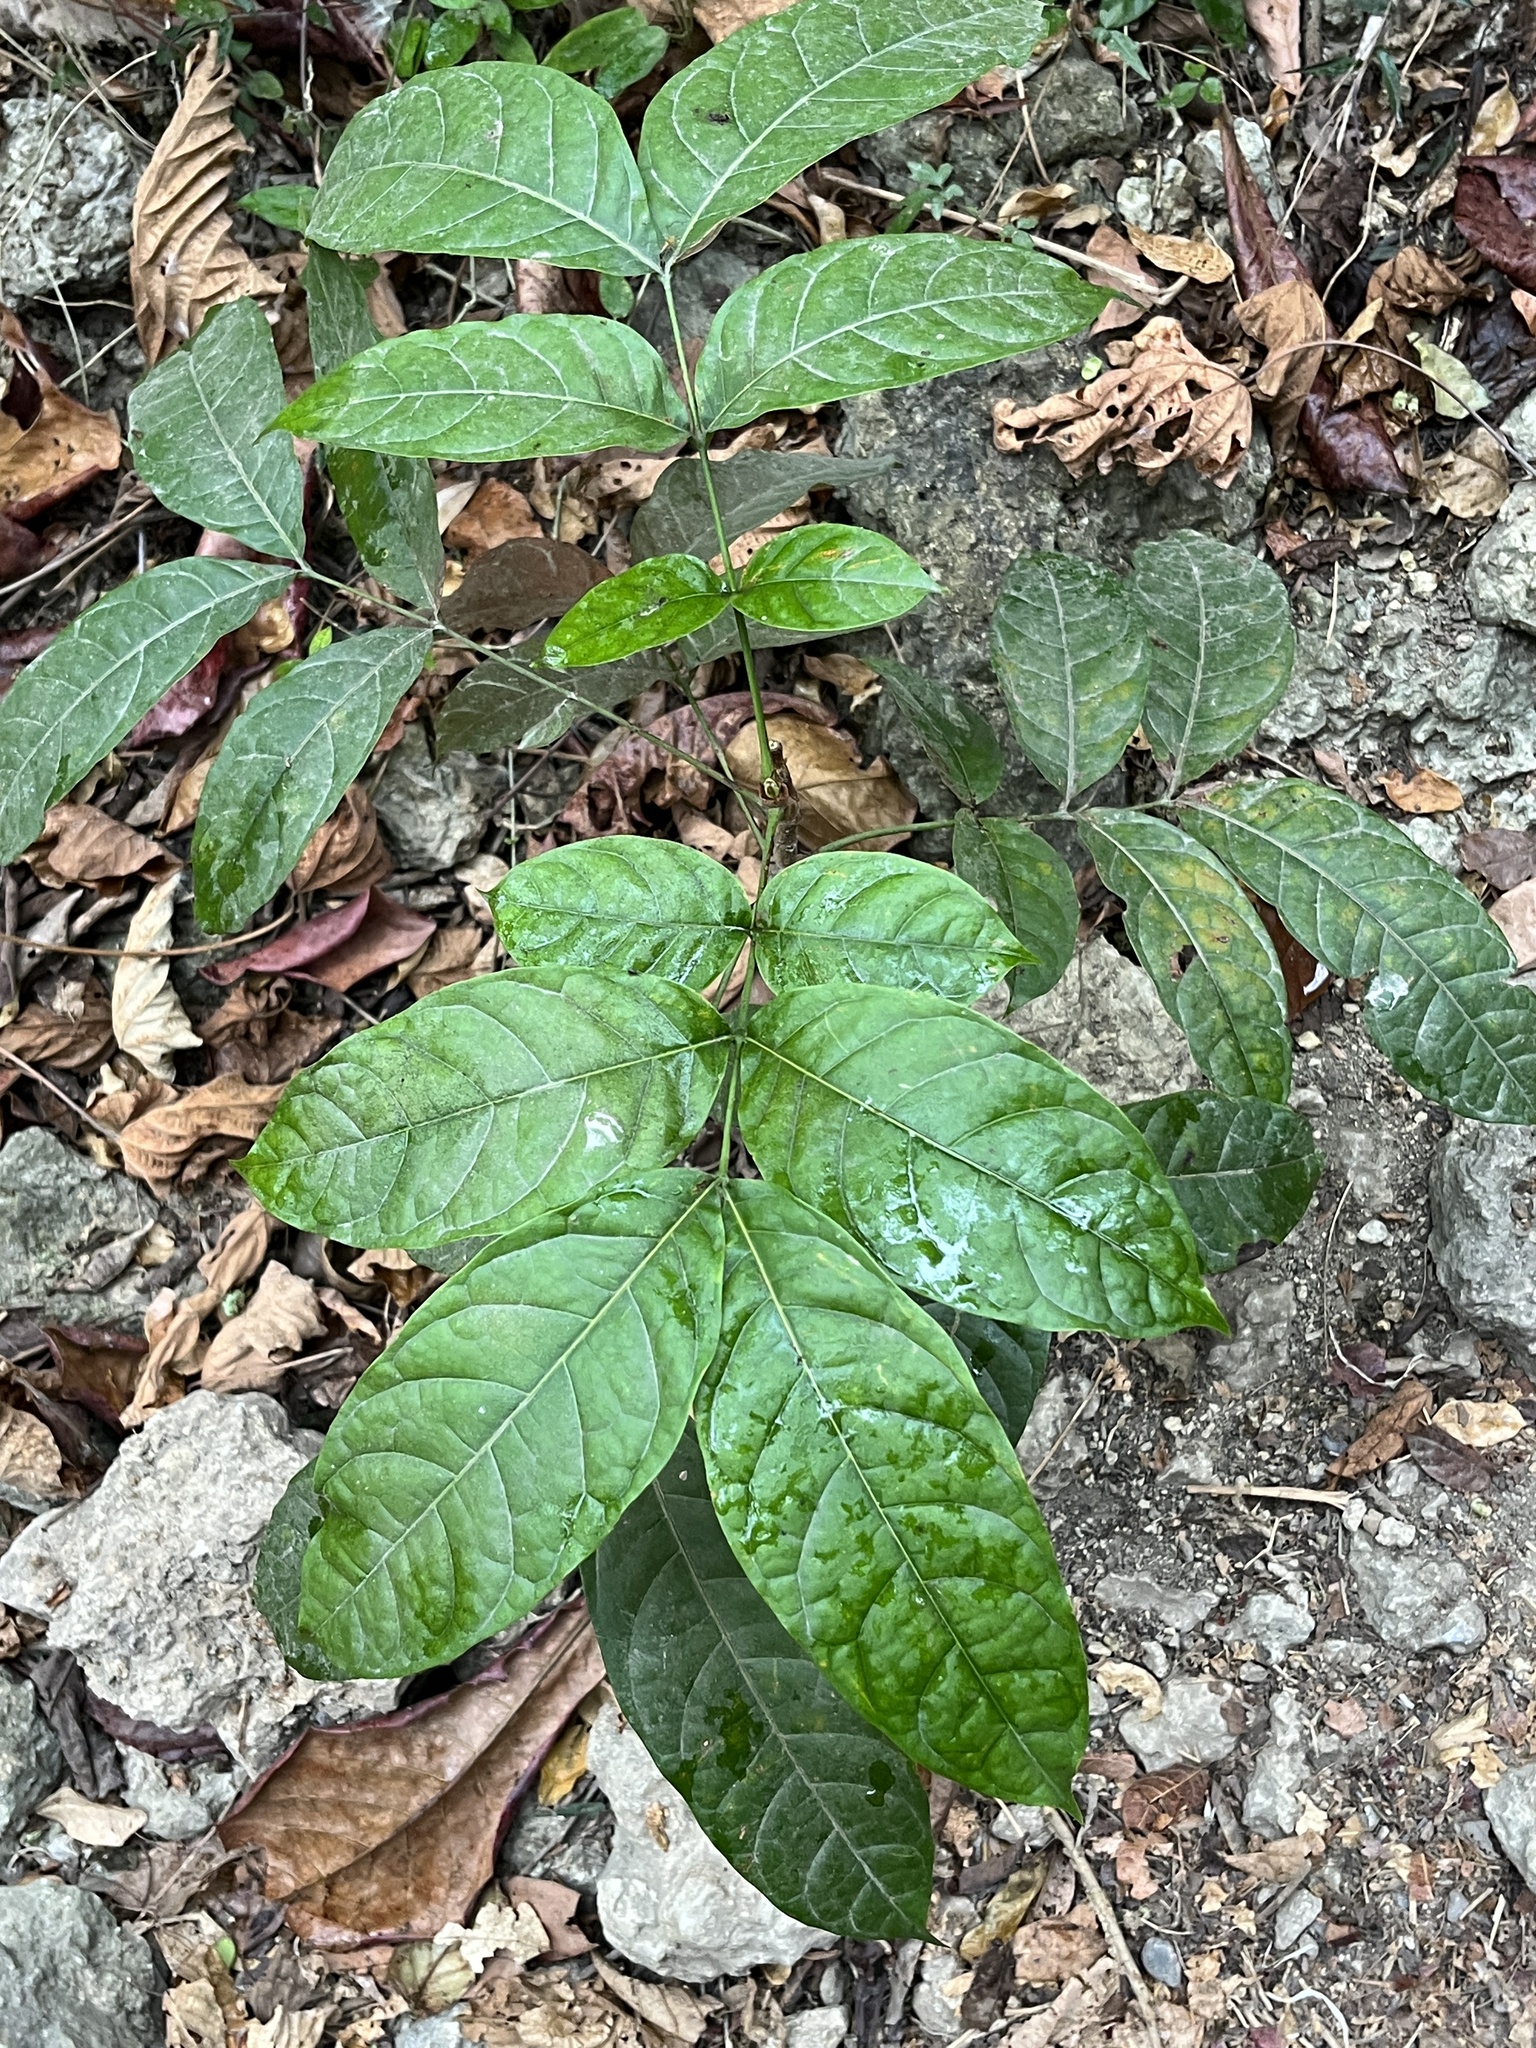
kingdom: Plantae
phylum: Tracheophyta
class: Magnoliopsida
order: Sapindales
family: Meliaceae
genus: Swietenia
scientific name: Swietenia macrophylla
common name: Honduras mahogany
